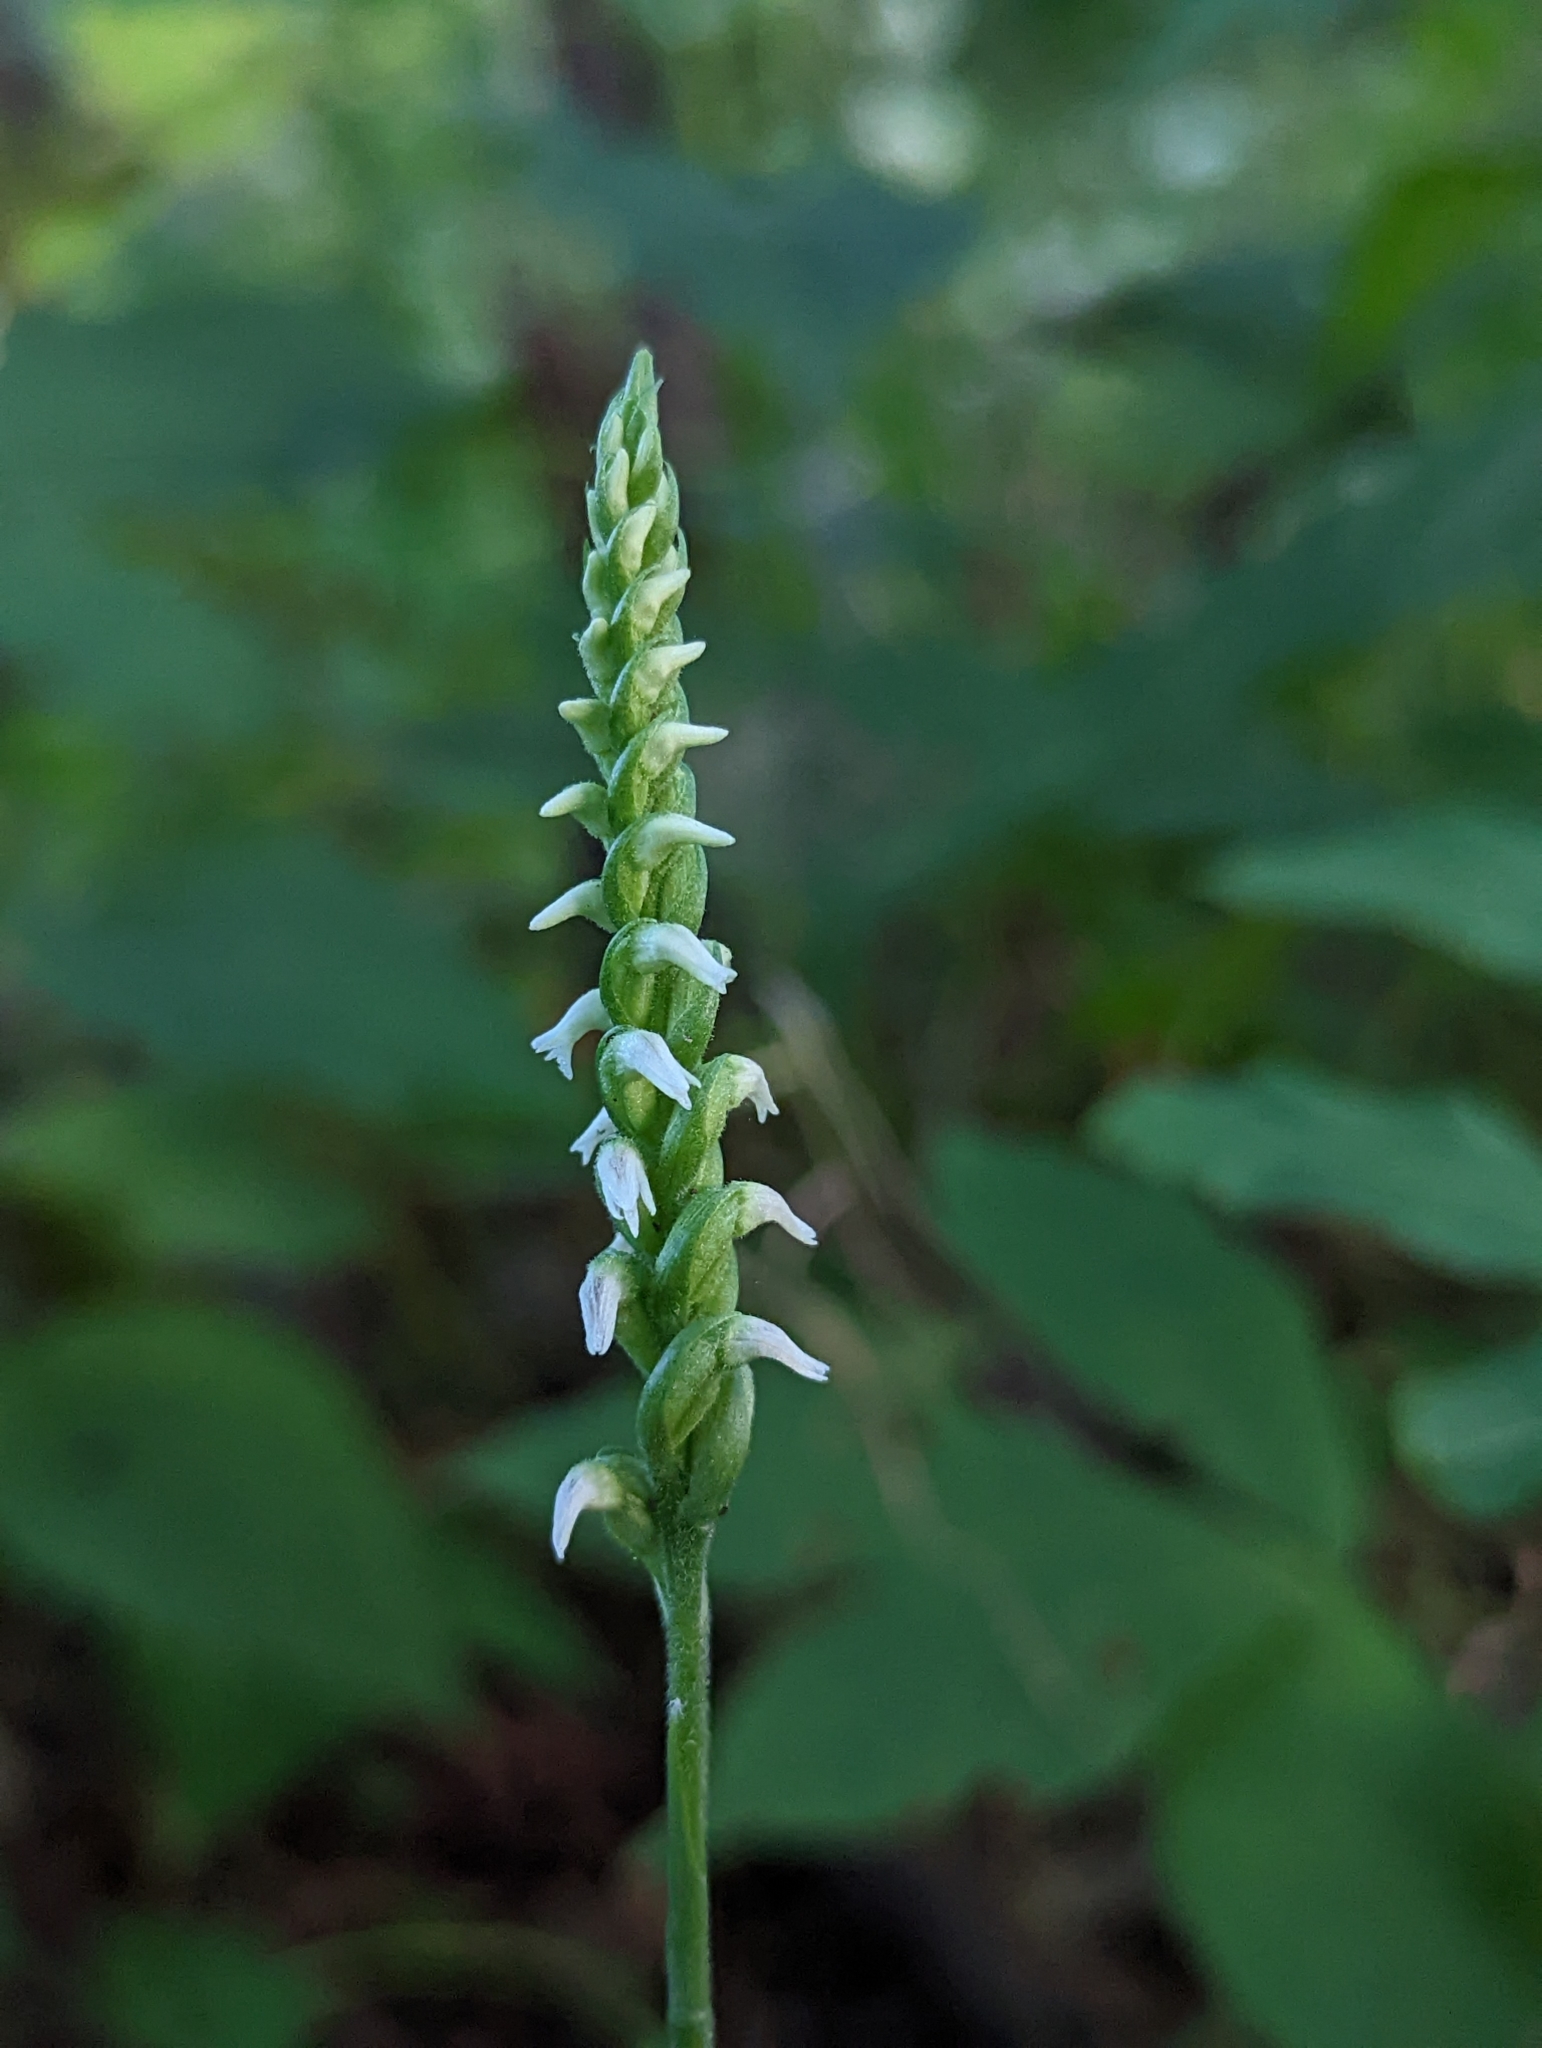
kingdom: Plantae
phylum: Tracheophyta
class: Liliopsida
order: Asparagales
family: Orchidaceae
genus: Spiranthes
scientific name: Spiranthes ovalis
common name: October ladies'-tresses
